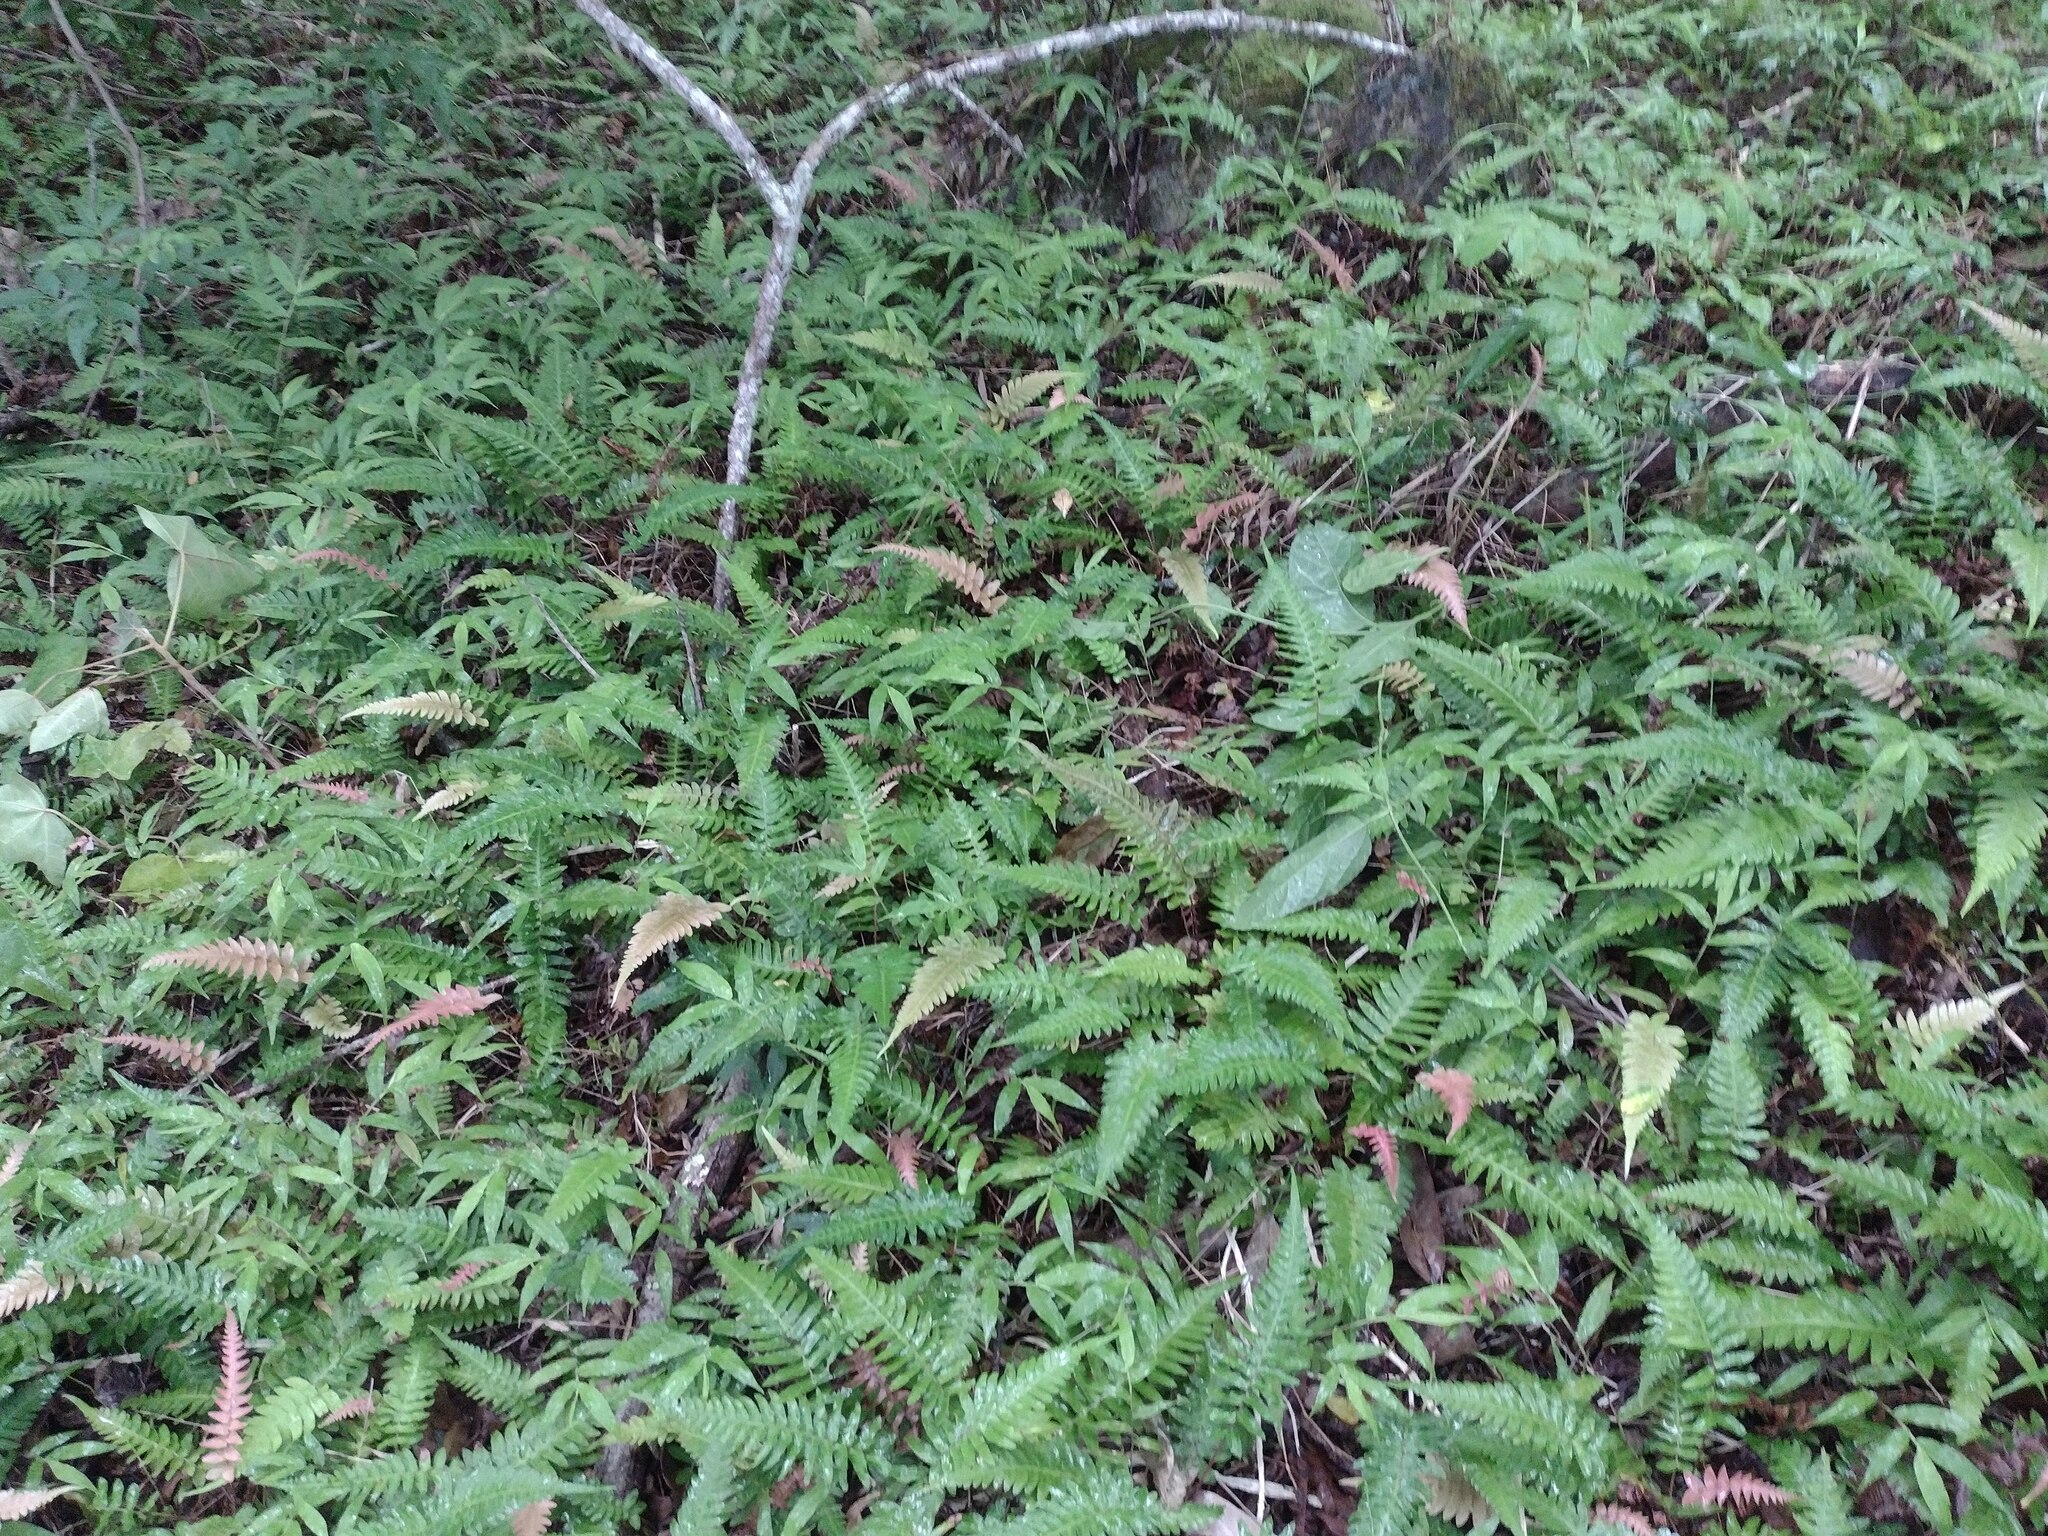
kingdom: Plantae
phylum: Tracheophyta
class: Polypodiopsida
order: Polypodiales
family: Blechnaceae
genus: Blechnum
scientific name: Blechnum appendiculatum
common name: Palm fern
